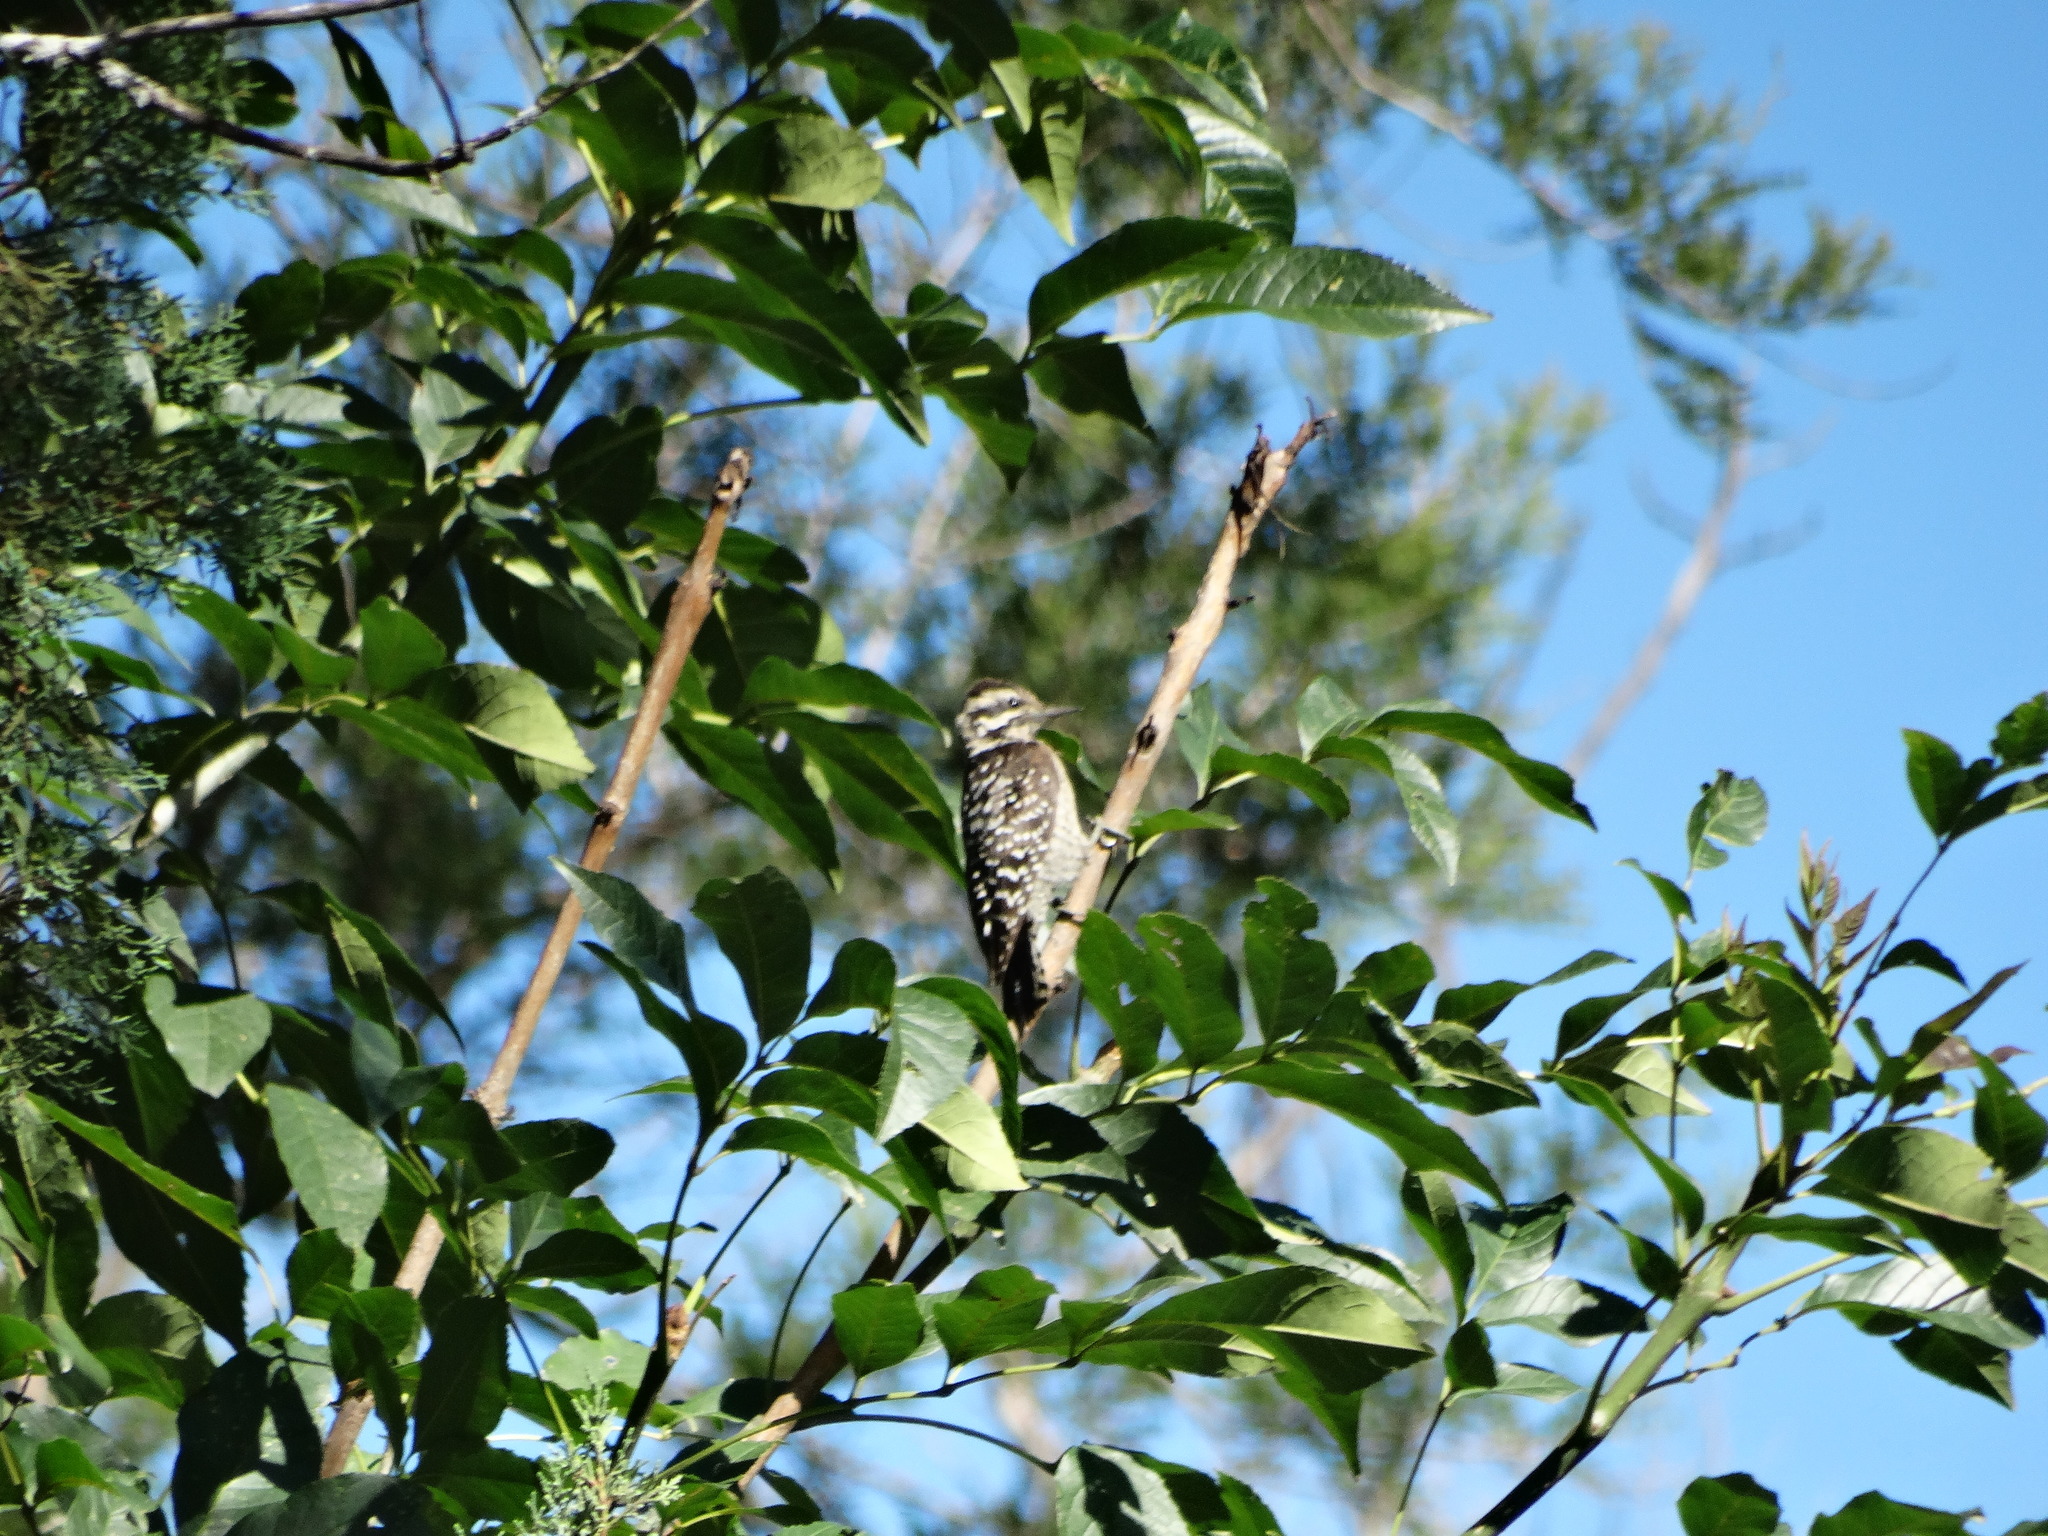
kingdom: Animalia
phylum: Chordata
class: Aves
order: Piciformes
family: Picidae
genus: Dryobates
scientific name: Dryobates scalaris
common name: Ladder-backed woodpecker
